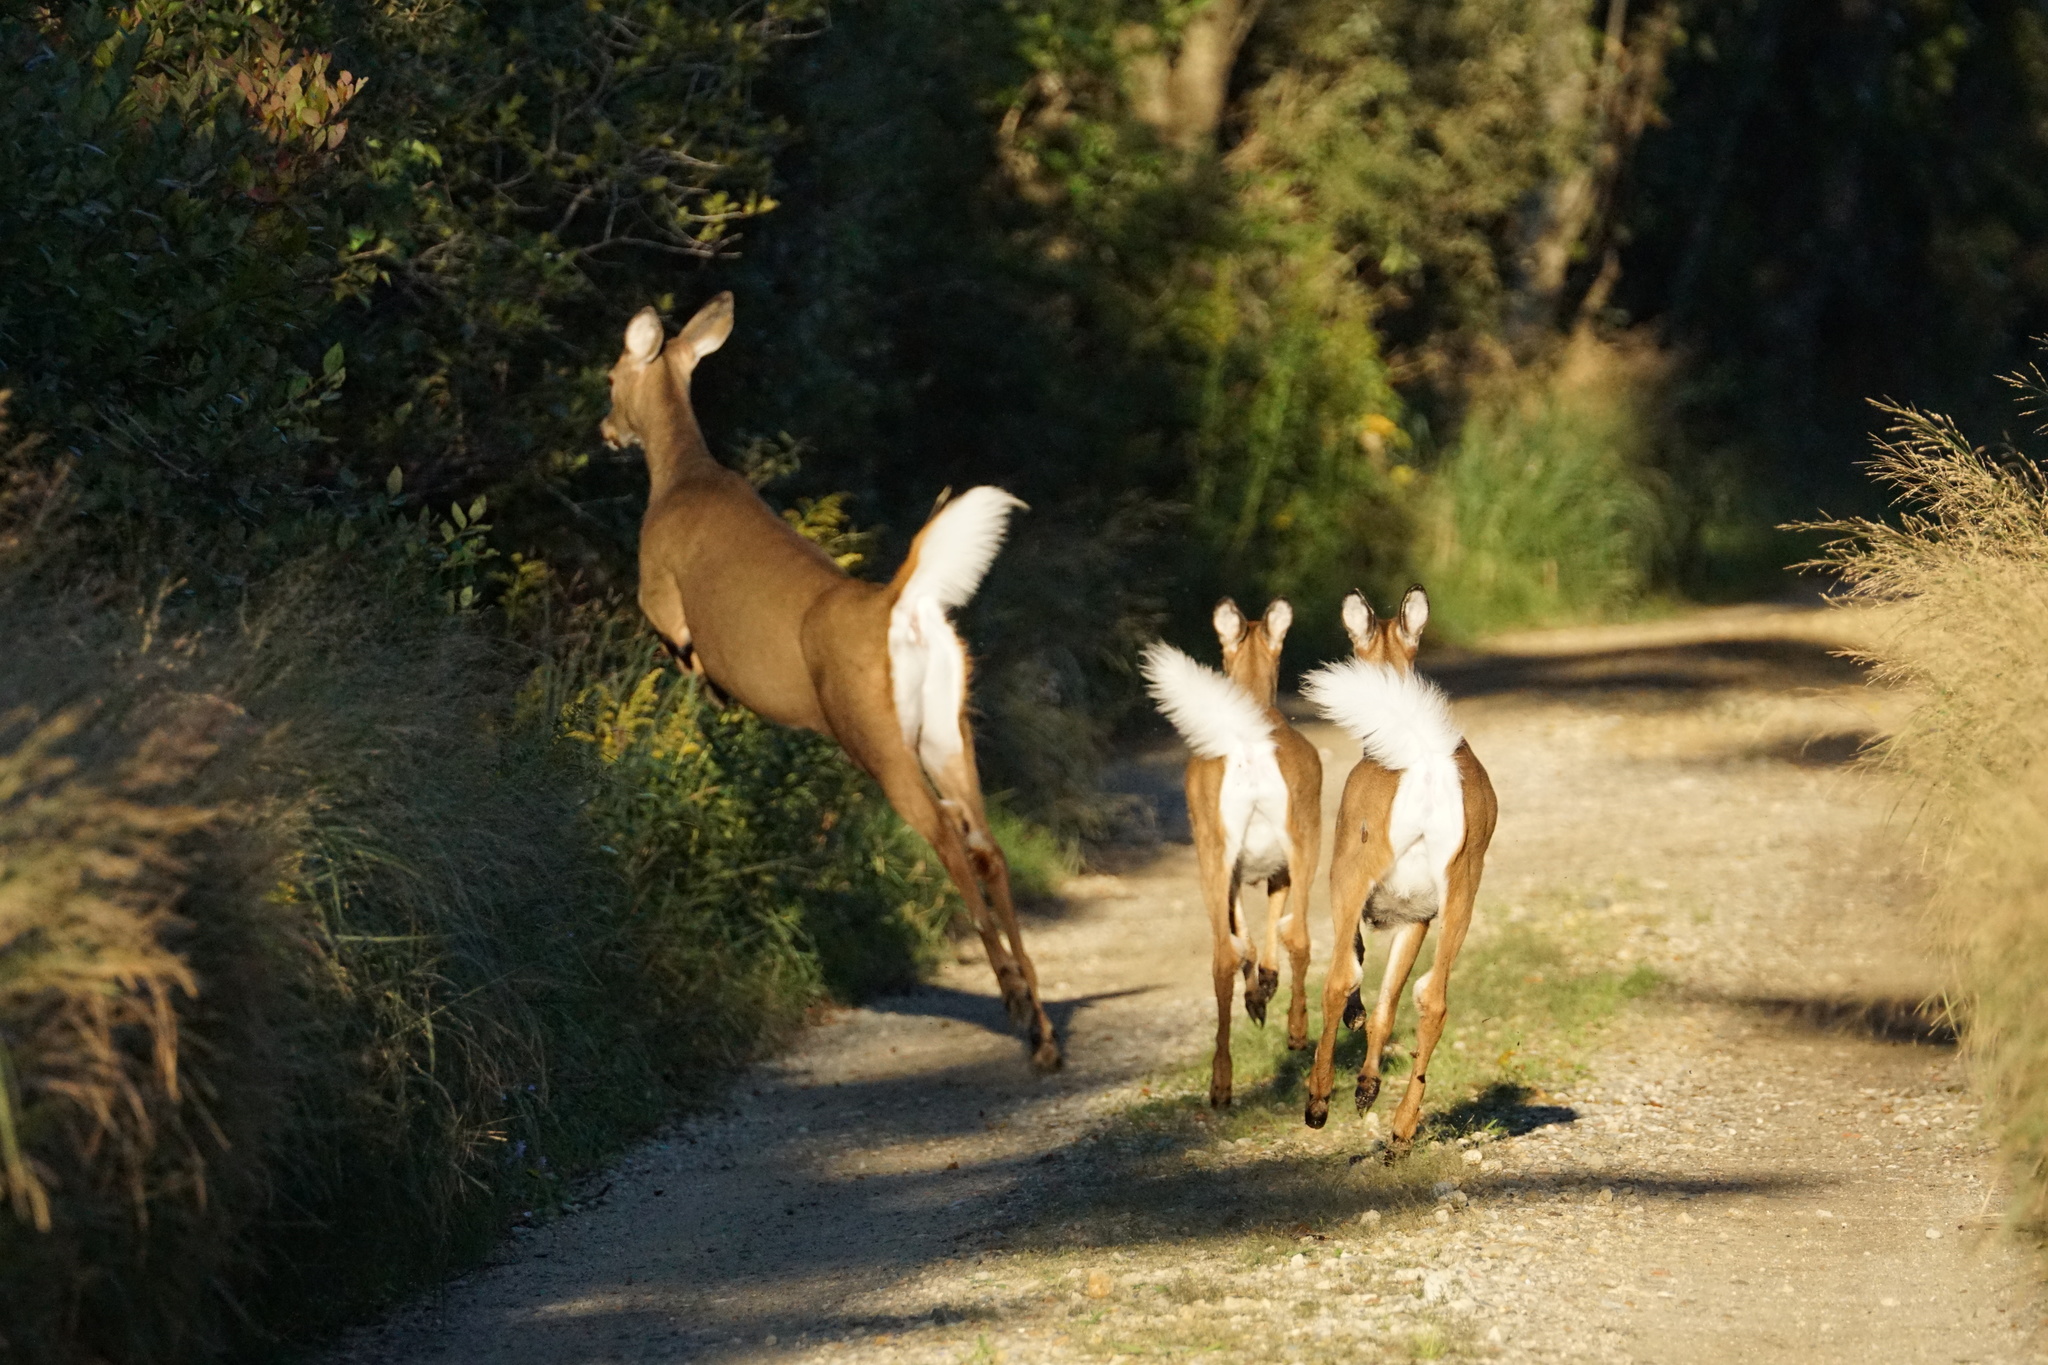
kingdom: Animalia
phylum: Chordata
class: Mammalia
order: Artiodactyla
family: Cervidae
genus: Odocoileus
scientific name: Odocoileus virginianus
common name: White-tailed deer
